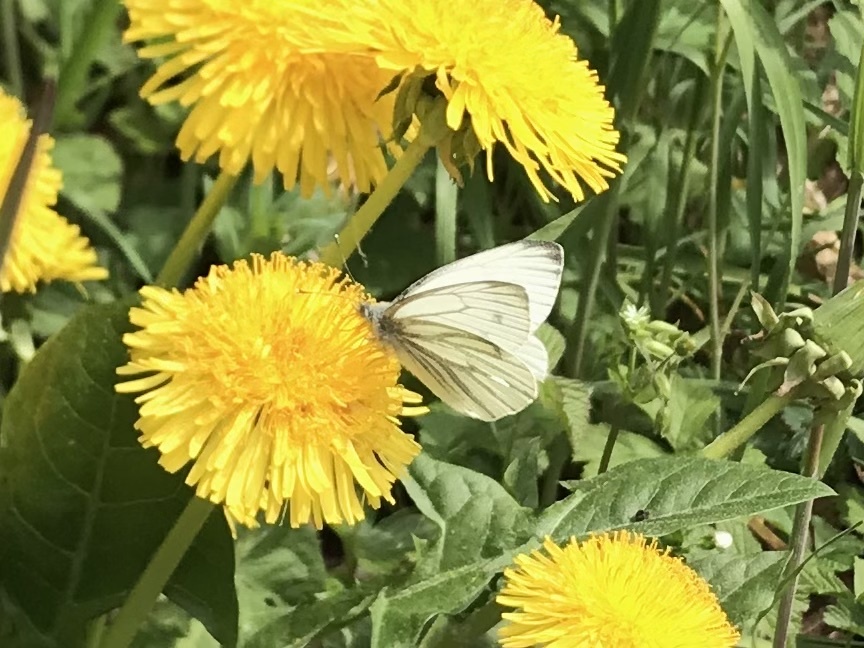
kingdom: Animalia
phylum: Arthropoda
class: Insecta
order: Lepidoptera
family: Pieridae
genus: Pieris
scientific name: Pieris napi
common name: Green-veined white
